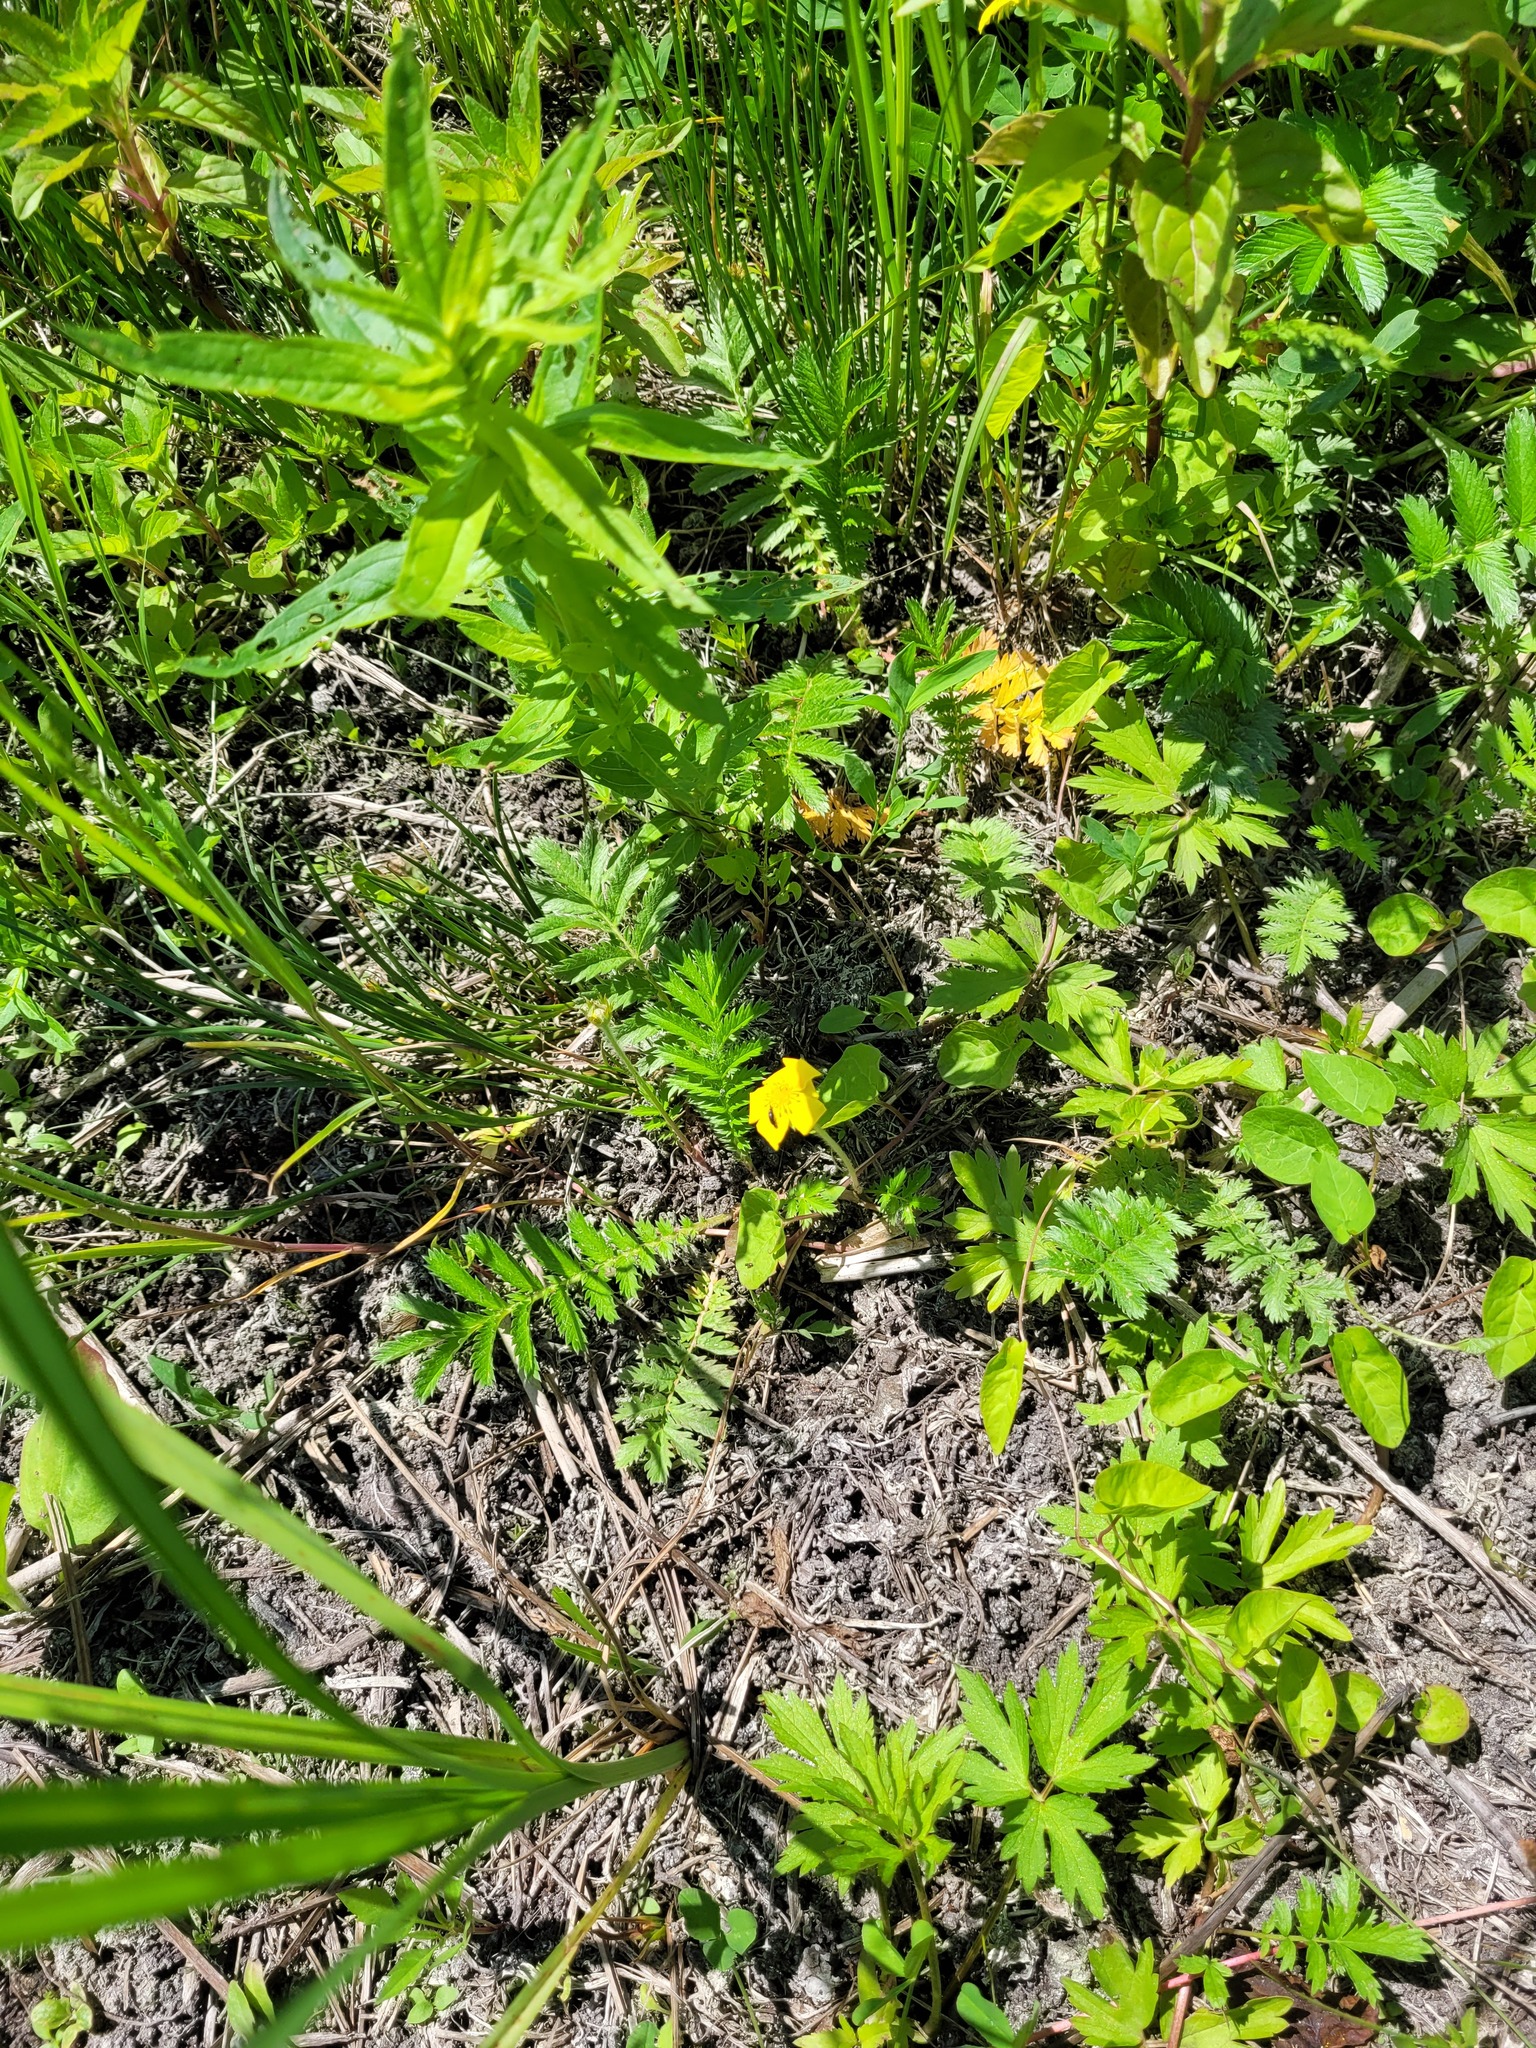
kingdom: Plantae
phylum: Tracheophyta
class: Magnoliopsida
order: Rosales
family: Rosaceae
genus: Argentina
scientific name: Argentina anserina
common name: Common silverweed
